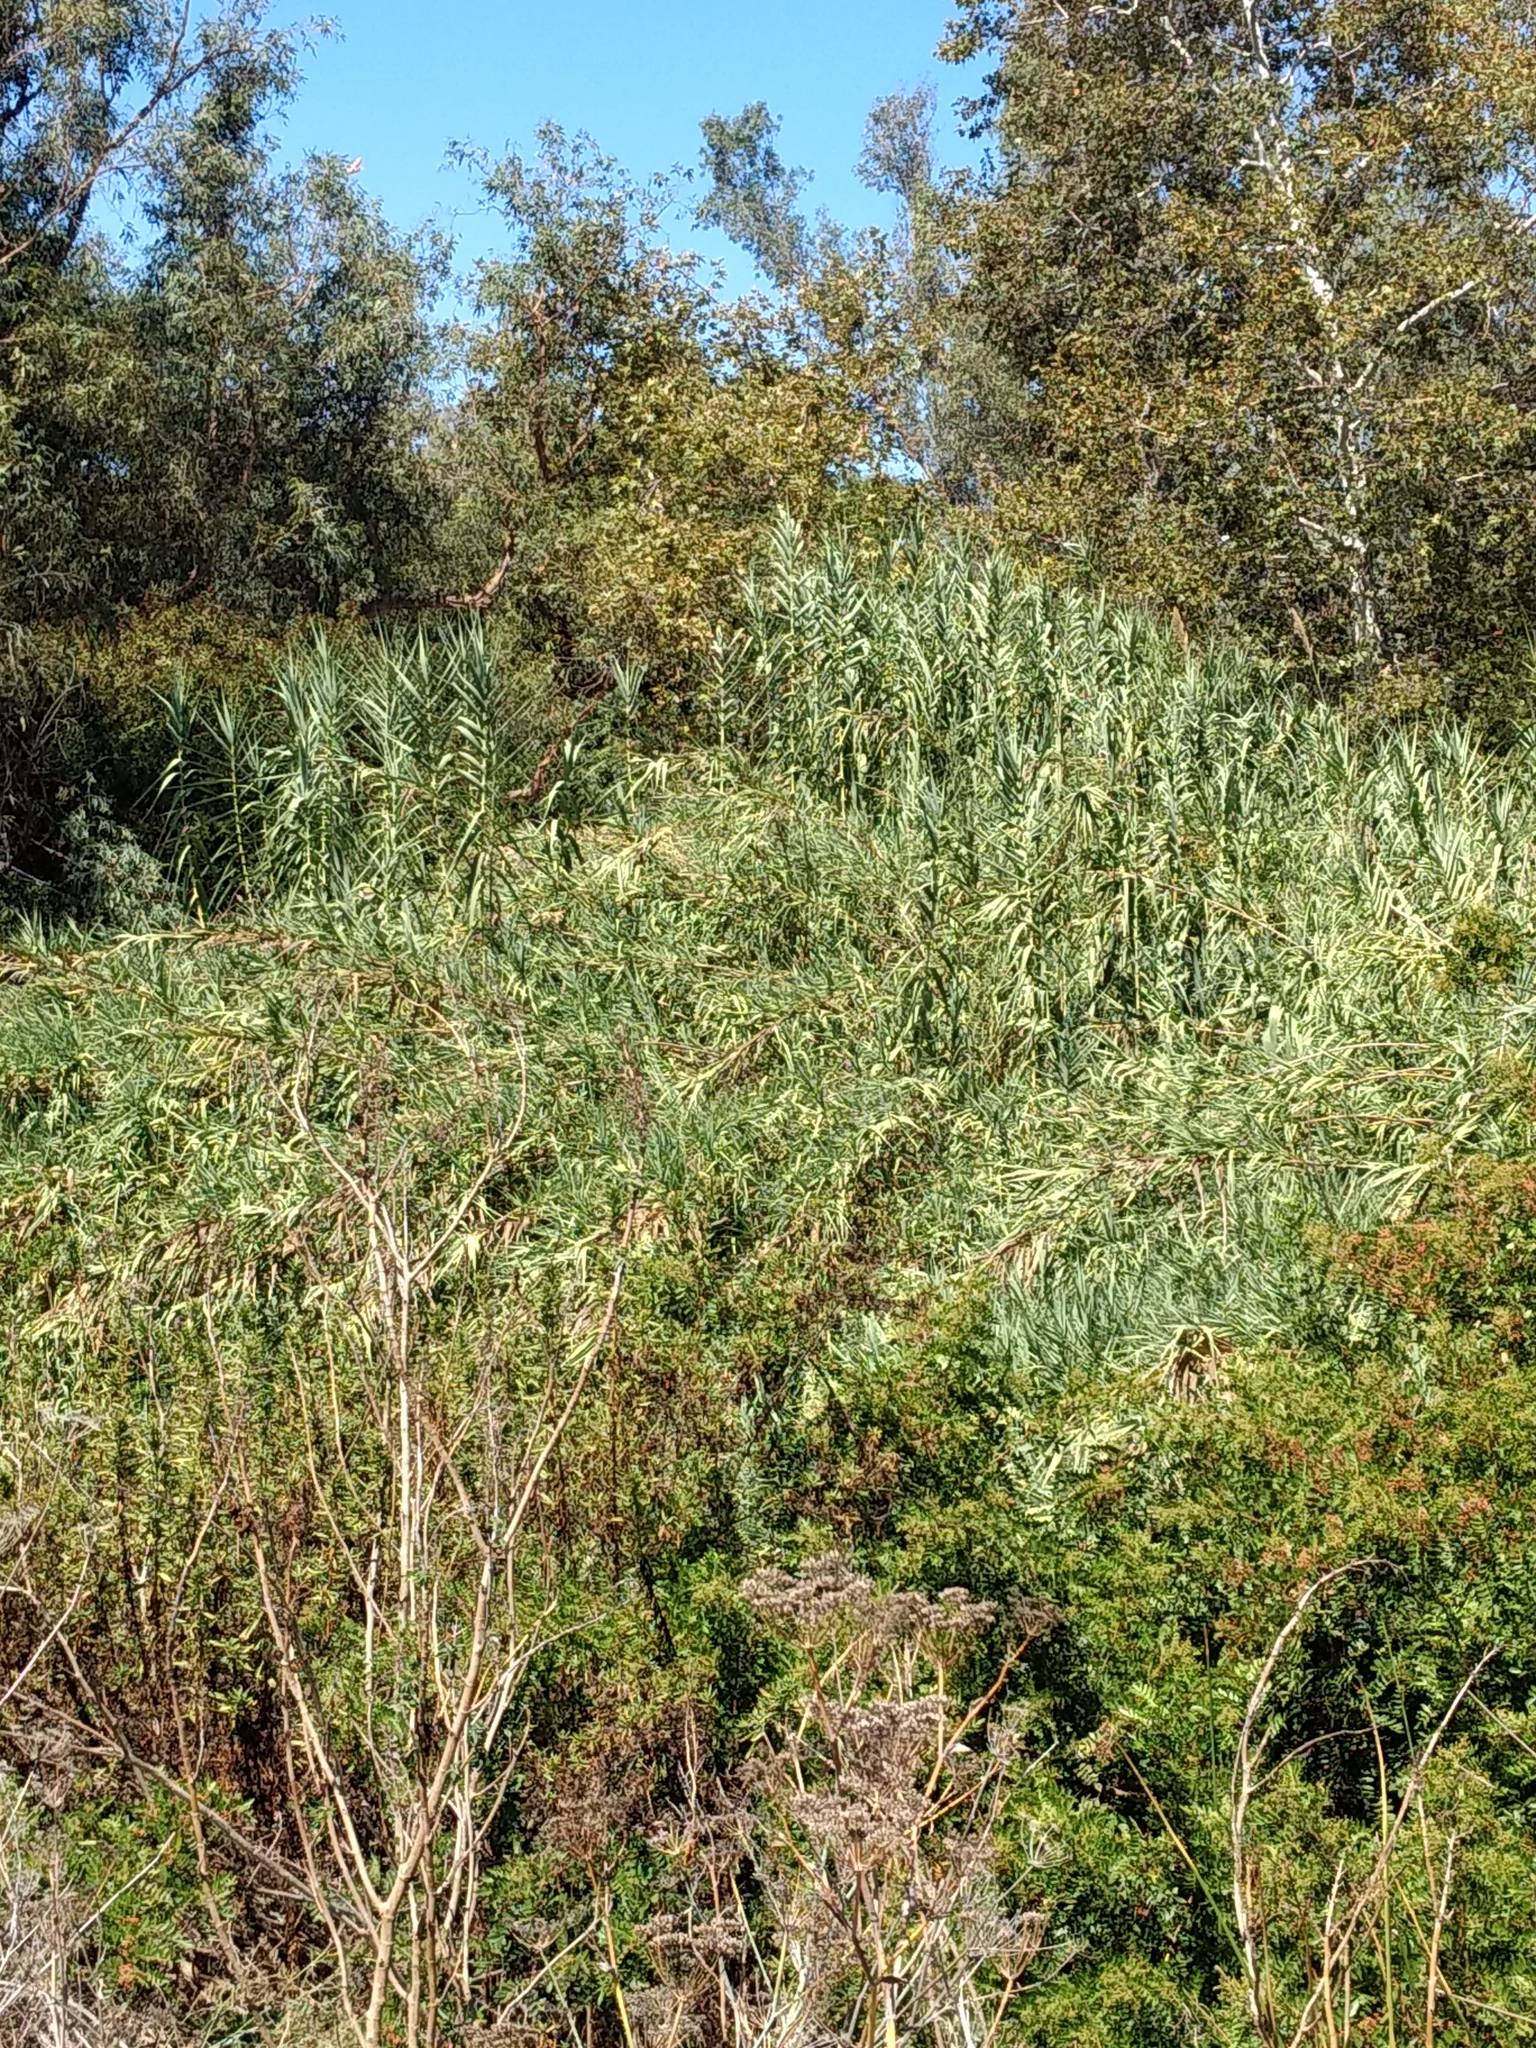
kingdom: Plantae
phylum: Tracheophyta
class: Liliopsida
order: Poales
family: Poaceae
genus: Arundo
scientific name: Arundo donax
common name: Giant reed
